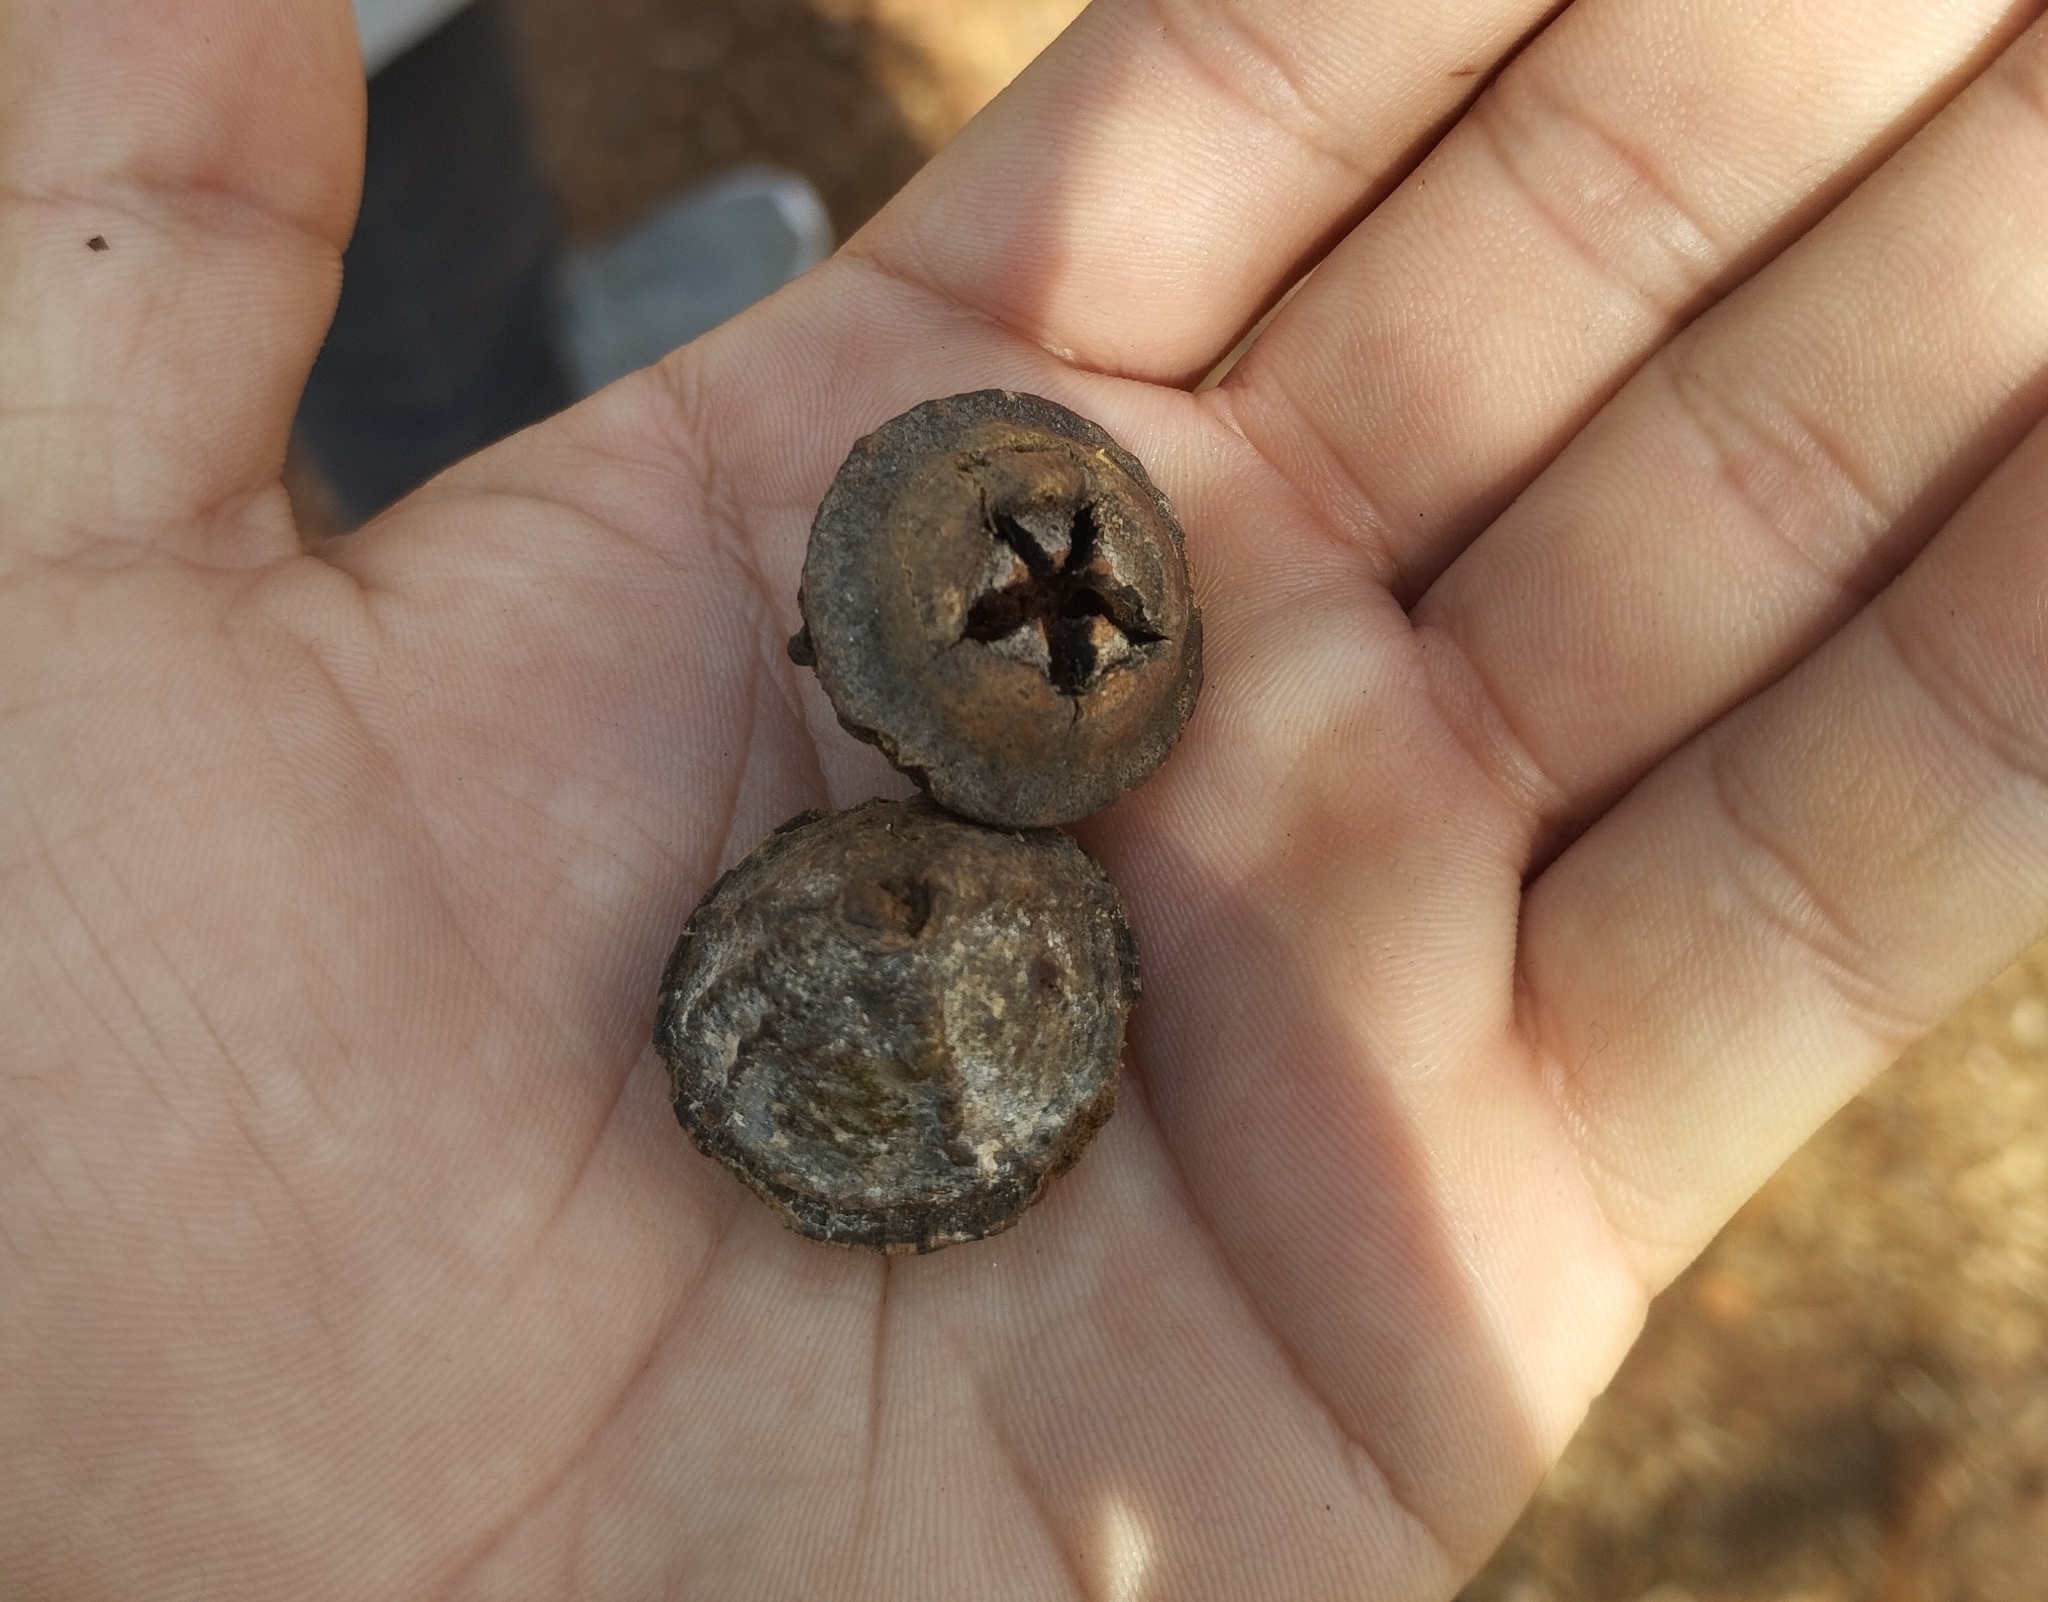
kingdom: Plantae
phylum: Tracheophyta
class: Magnoliopsida
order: Myrtales
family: Myrtaceae
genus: Eucalyptus
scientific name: Eucalyptus globulus
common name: Southern blue-gum
